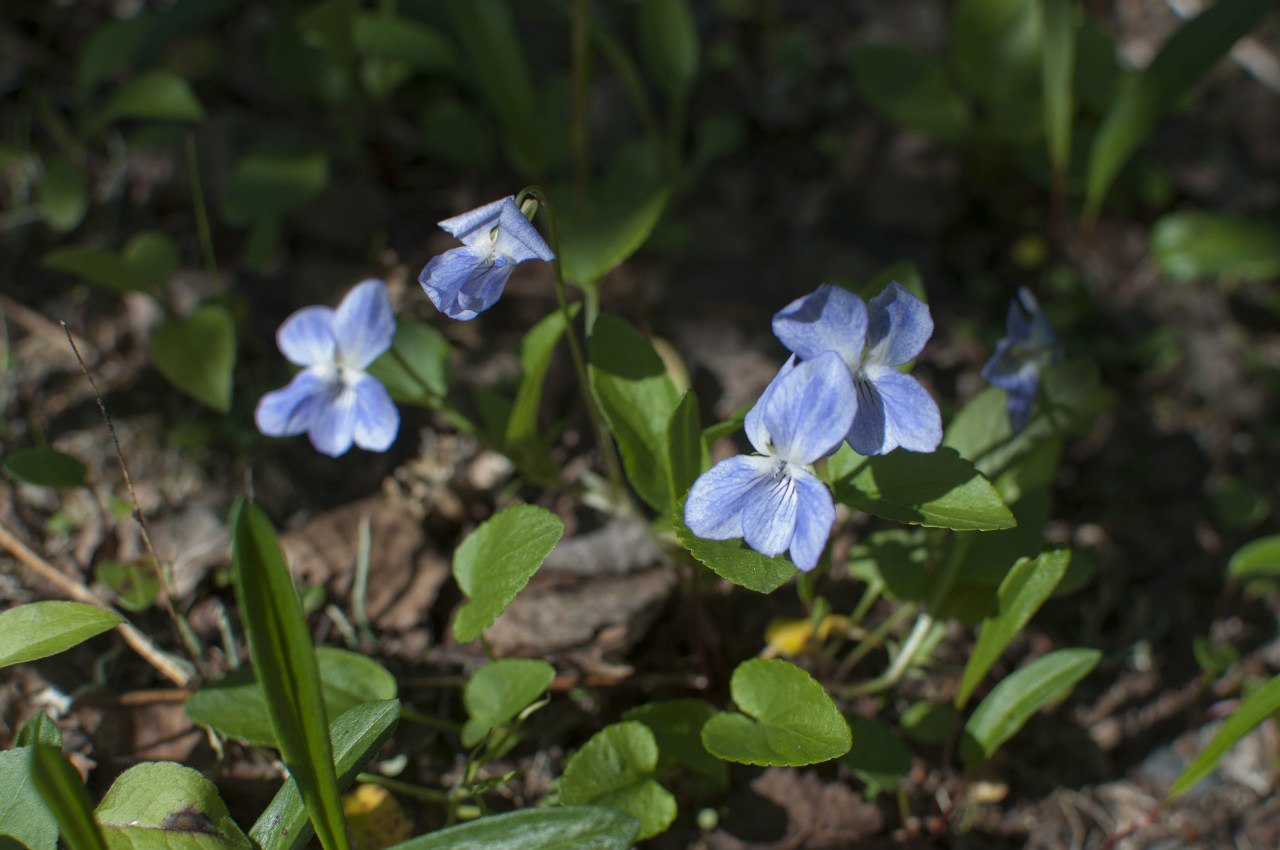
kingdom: Plantae
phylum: Tracheophyta
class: Magnoliopsida
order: Malpighiales
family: Violaceae
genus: Viola
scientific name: Viola canina
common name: Heath dog-violet
